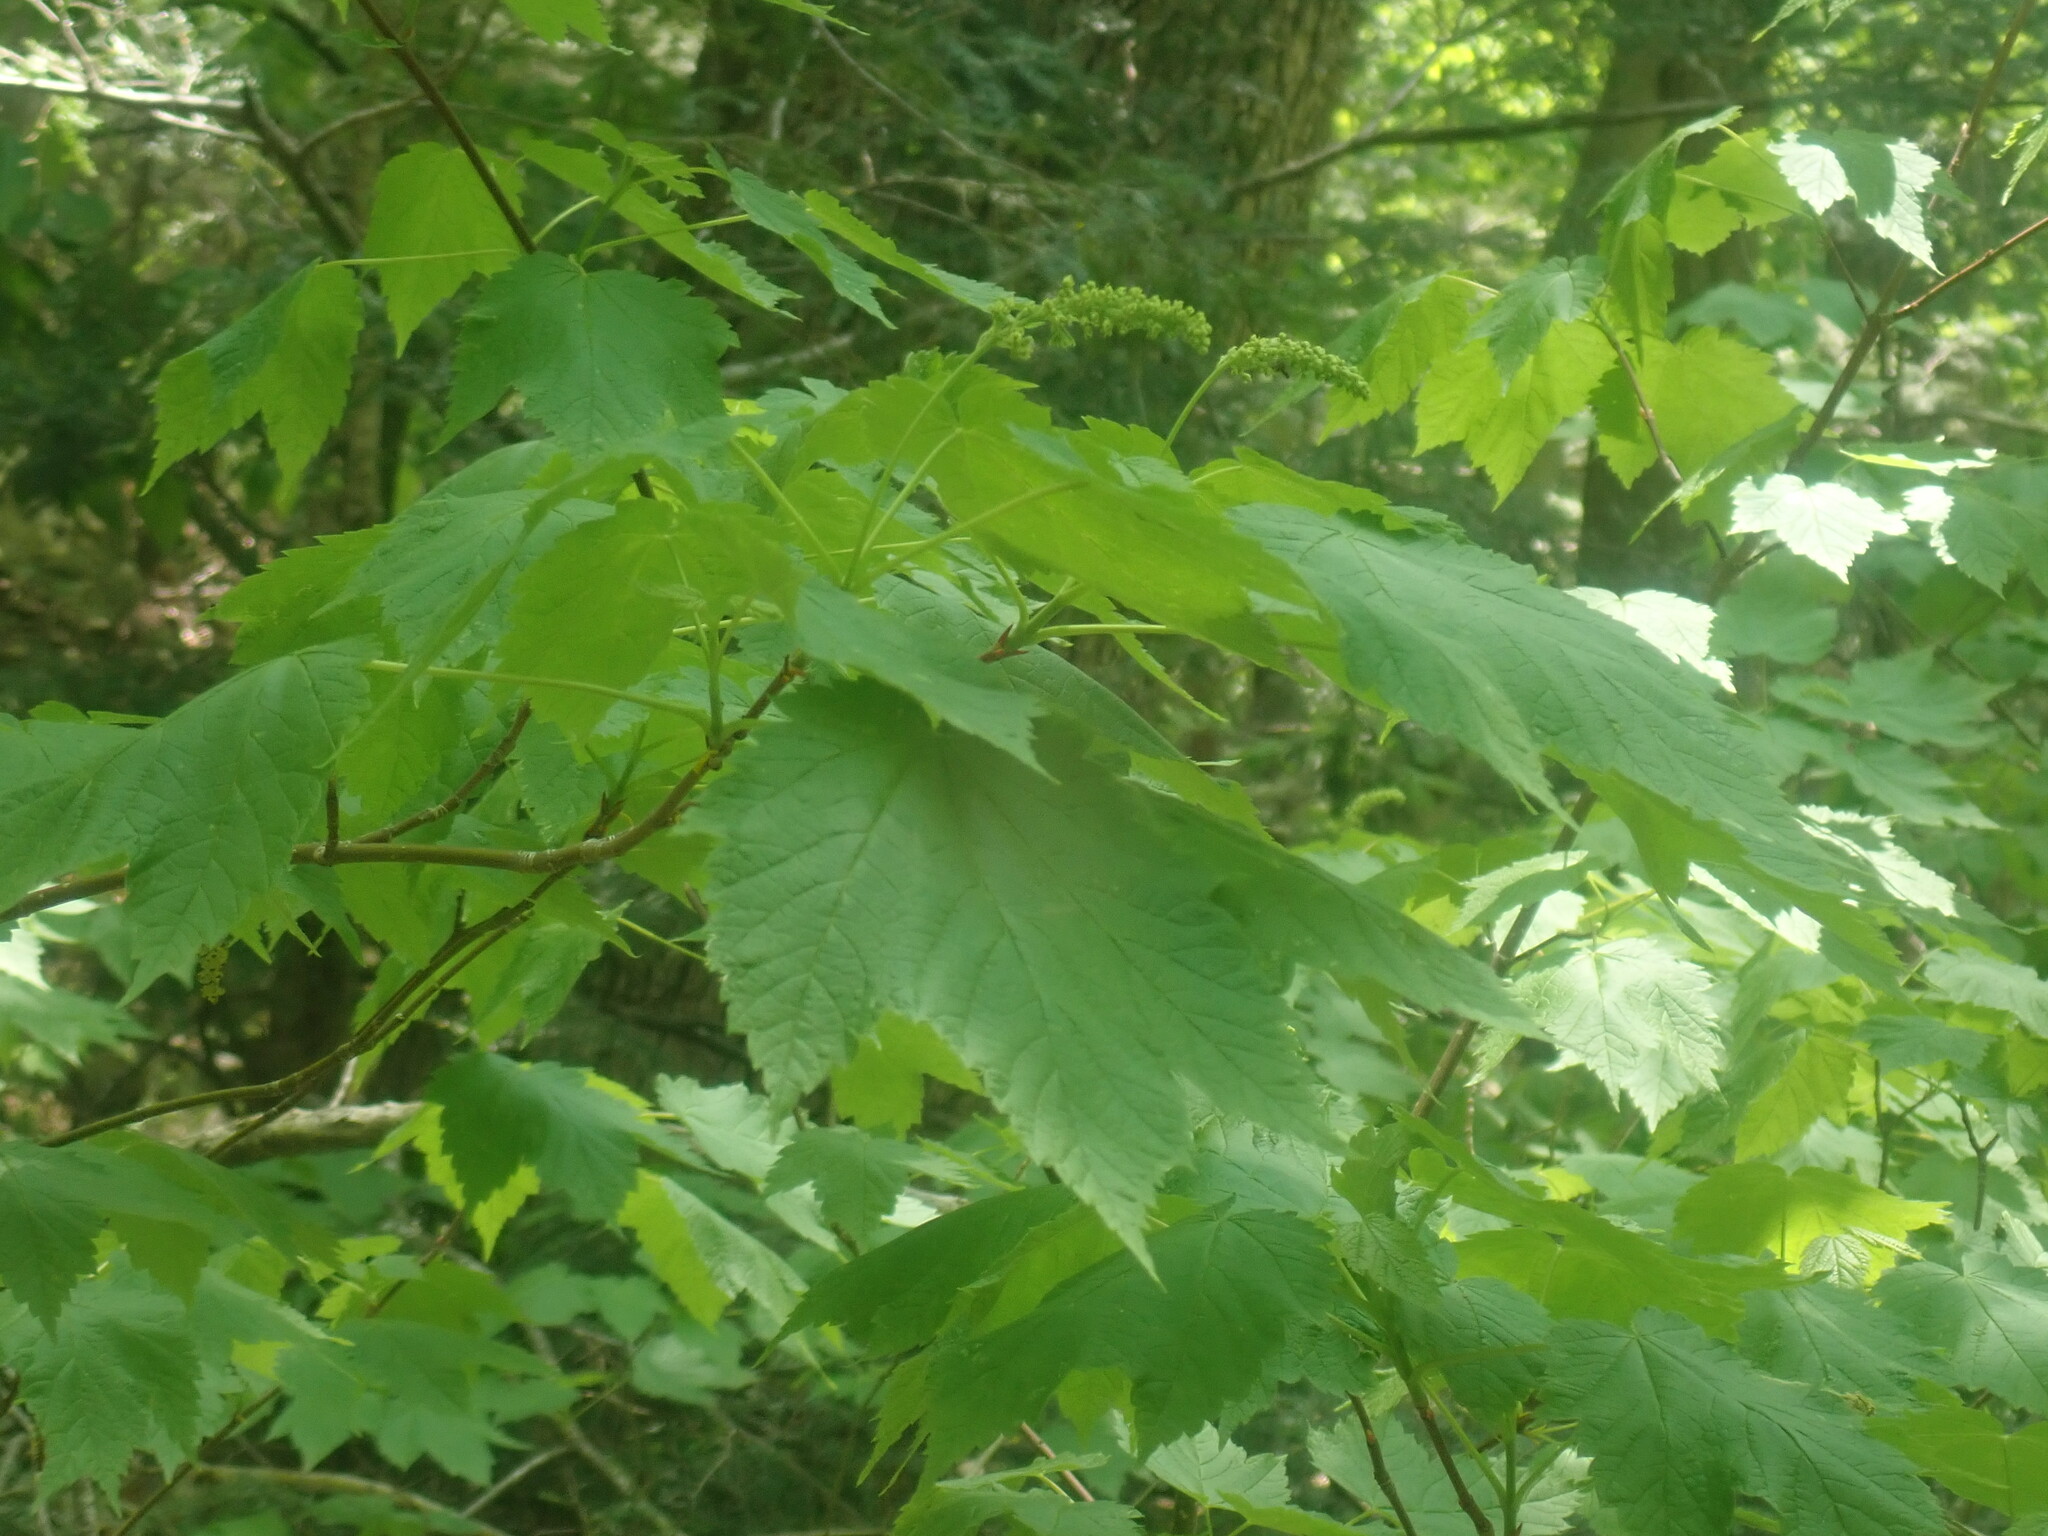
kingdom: Plantae
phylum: Tracheophyta
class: Magnoliopsida
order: Sapindales
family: Sapindaceae
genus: Acer
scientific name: Acer spicatum
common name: Mountain maple
